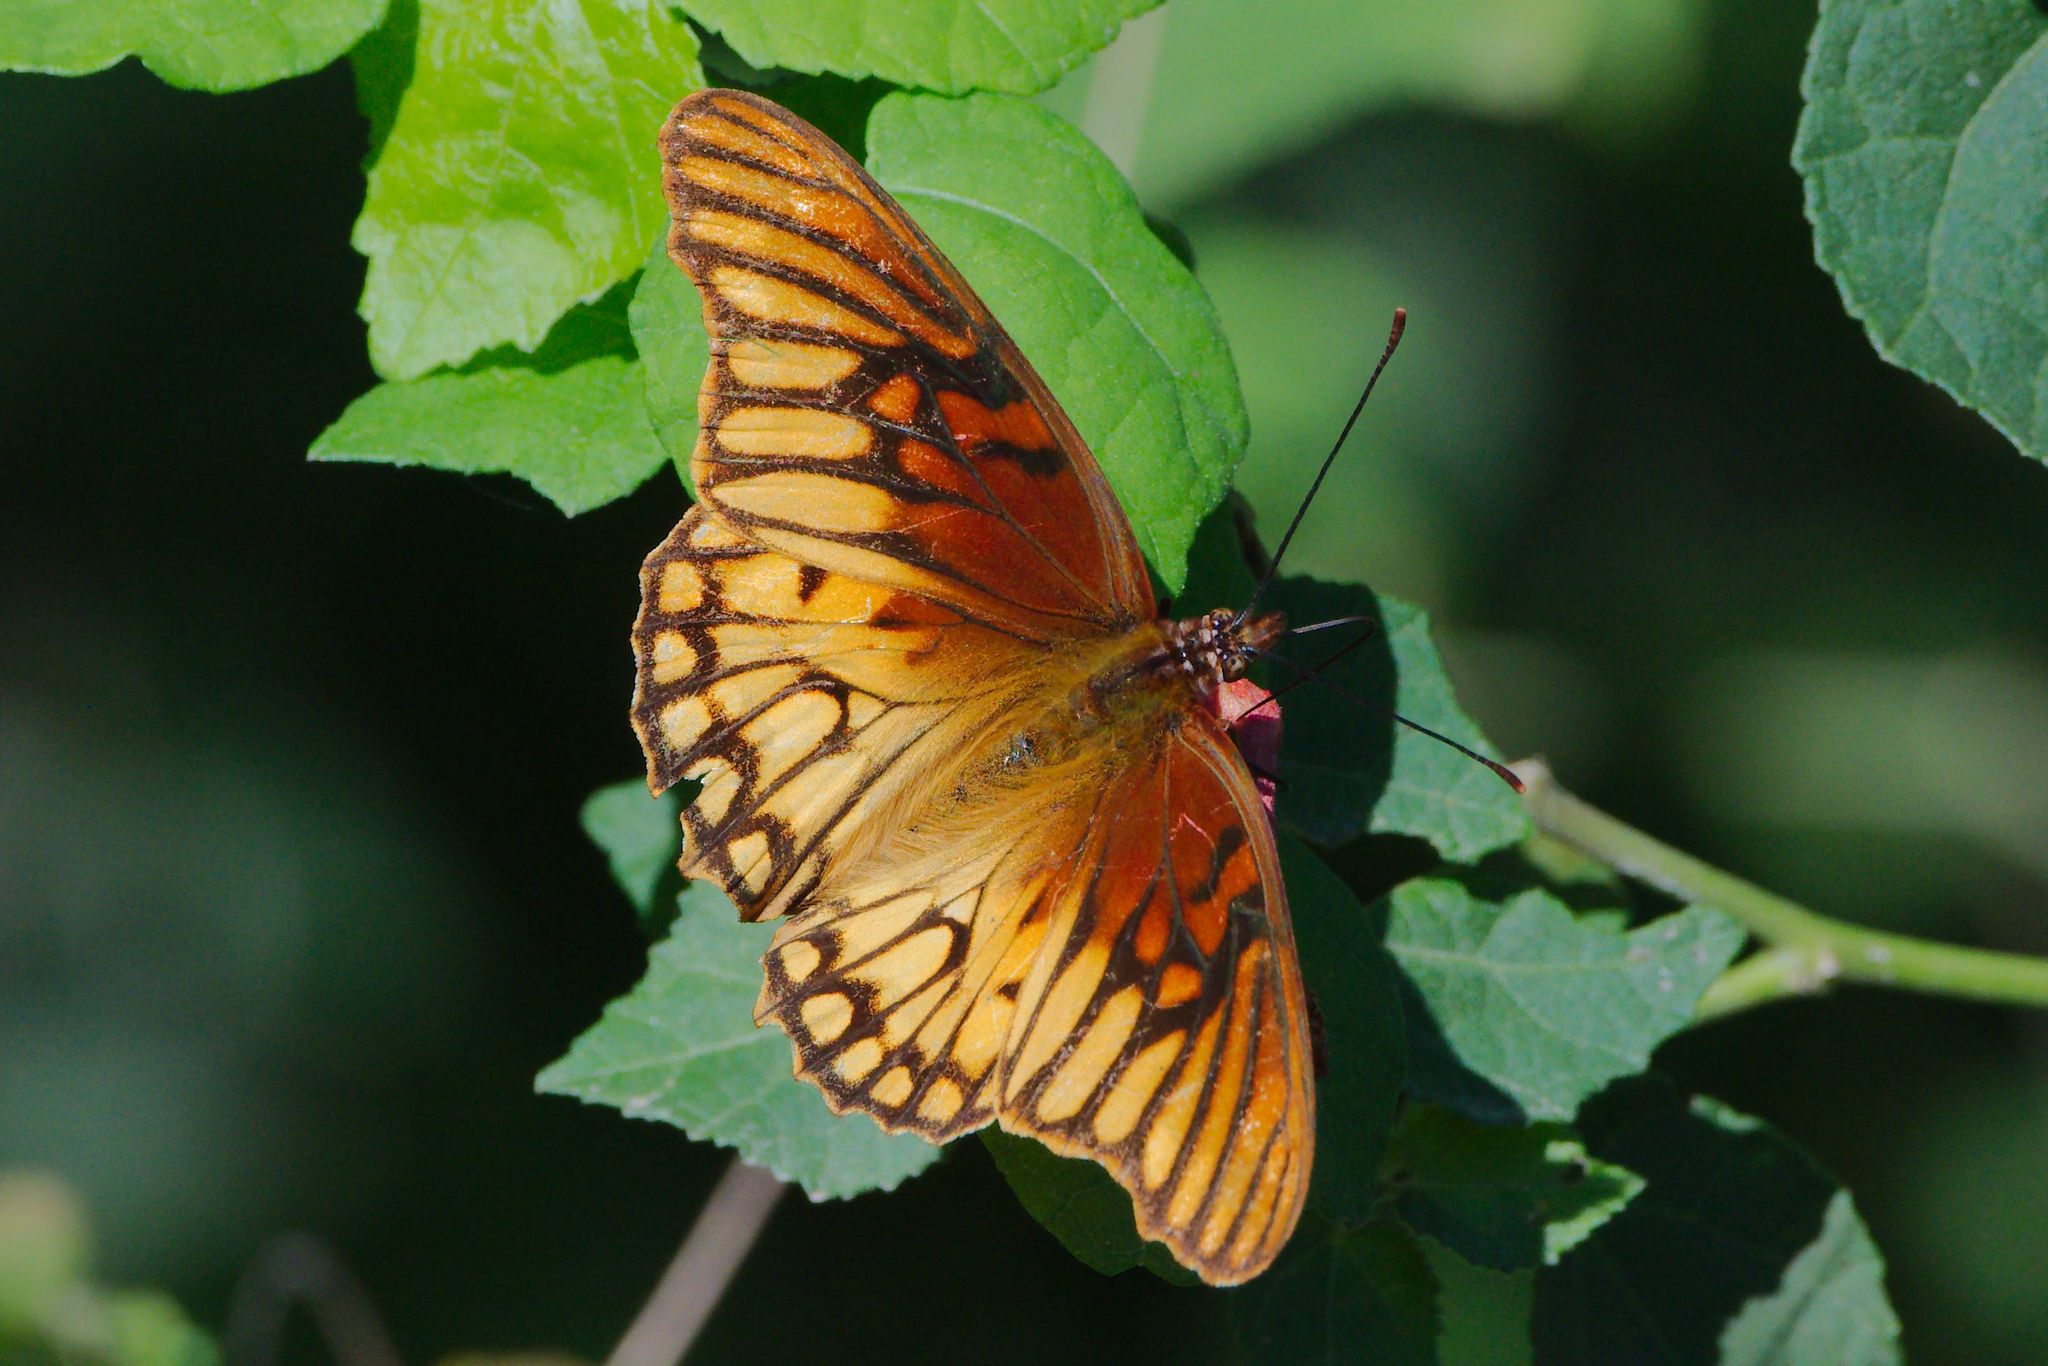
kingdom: Animalia
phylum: Arthropoda
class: Insecta
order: Lepidoptera
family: Nymphalidae
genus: Dione
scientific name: Dione moneta
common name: Mexican silverspot
